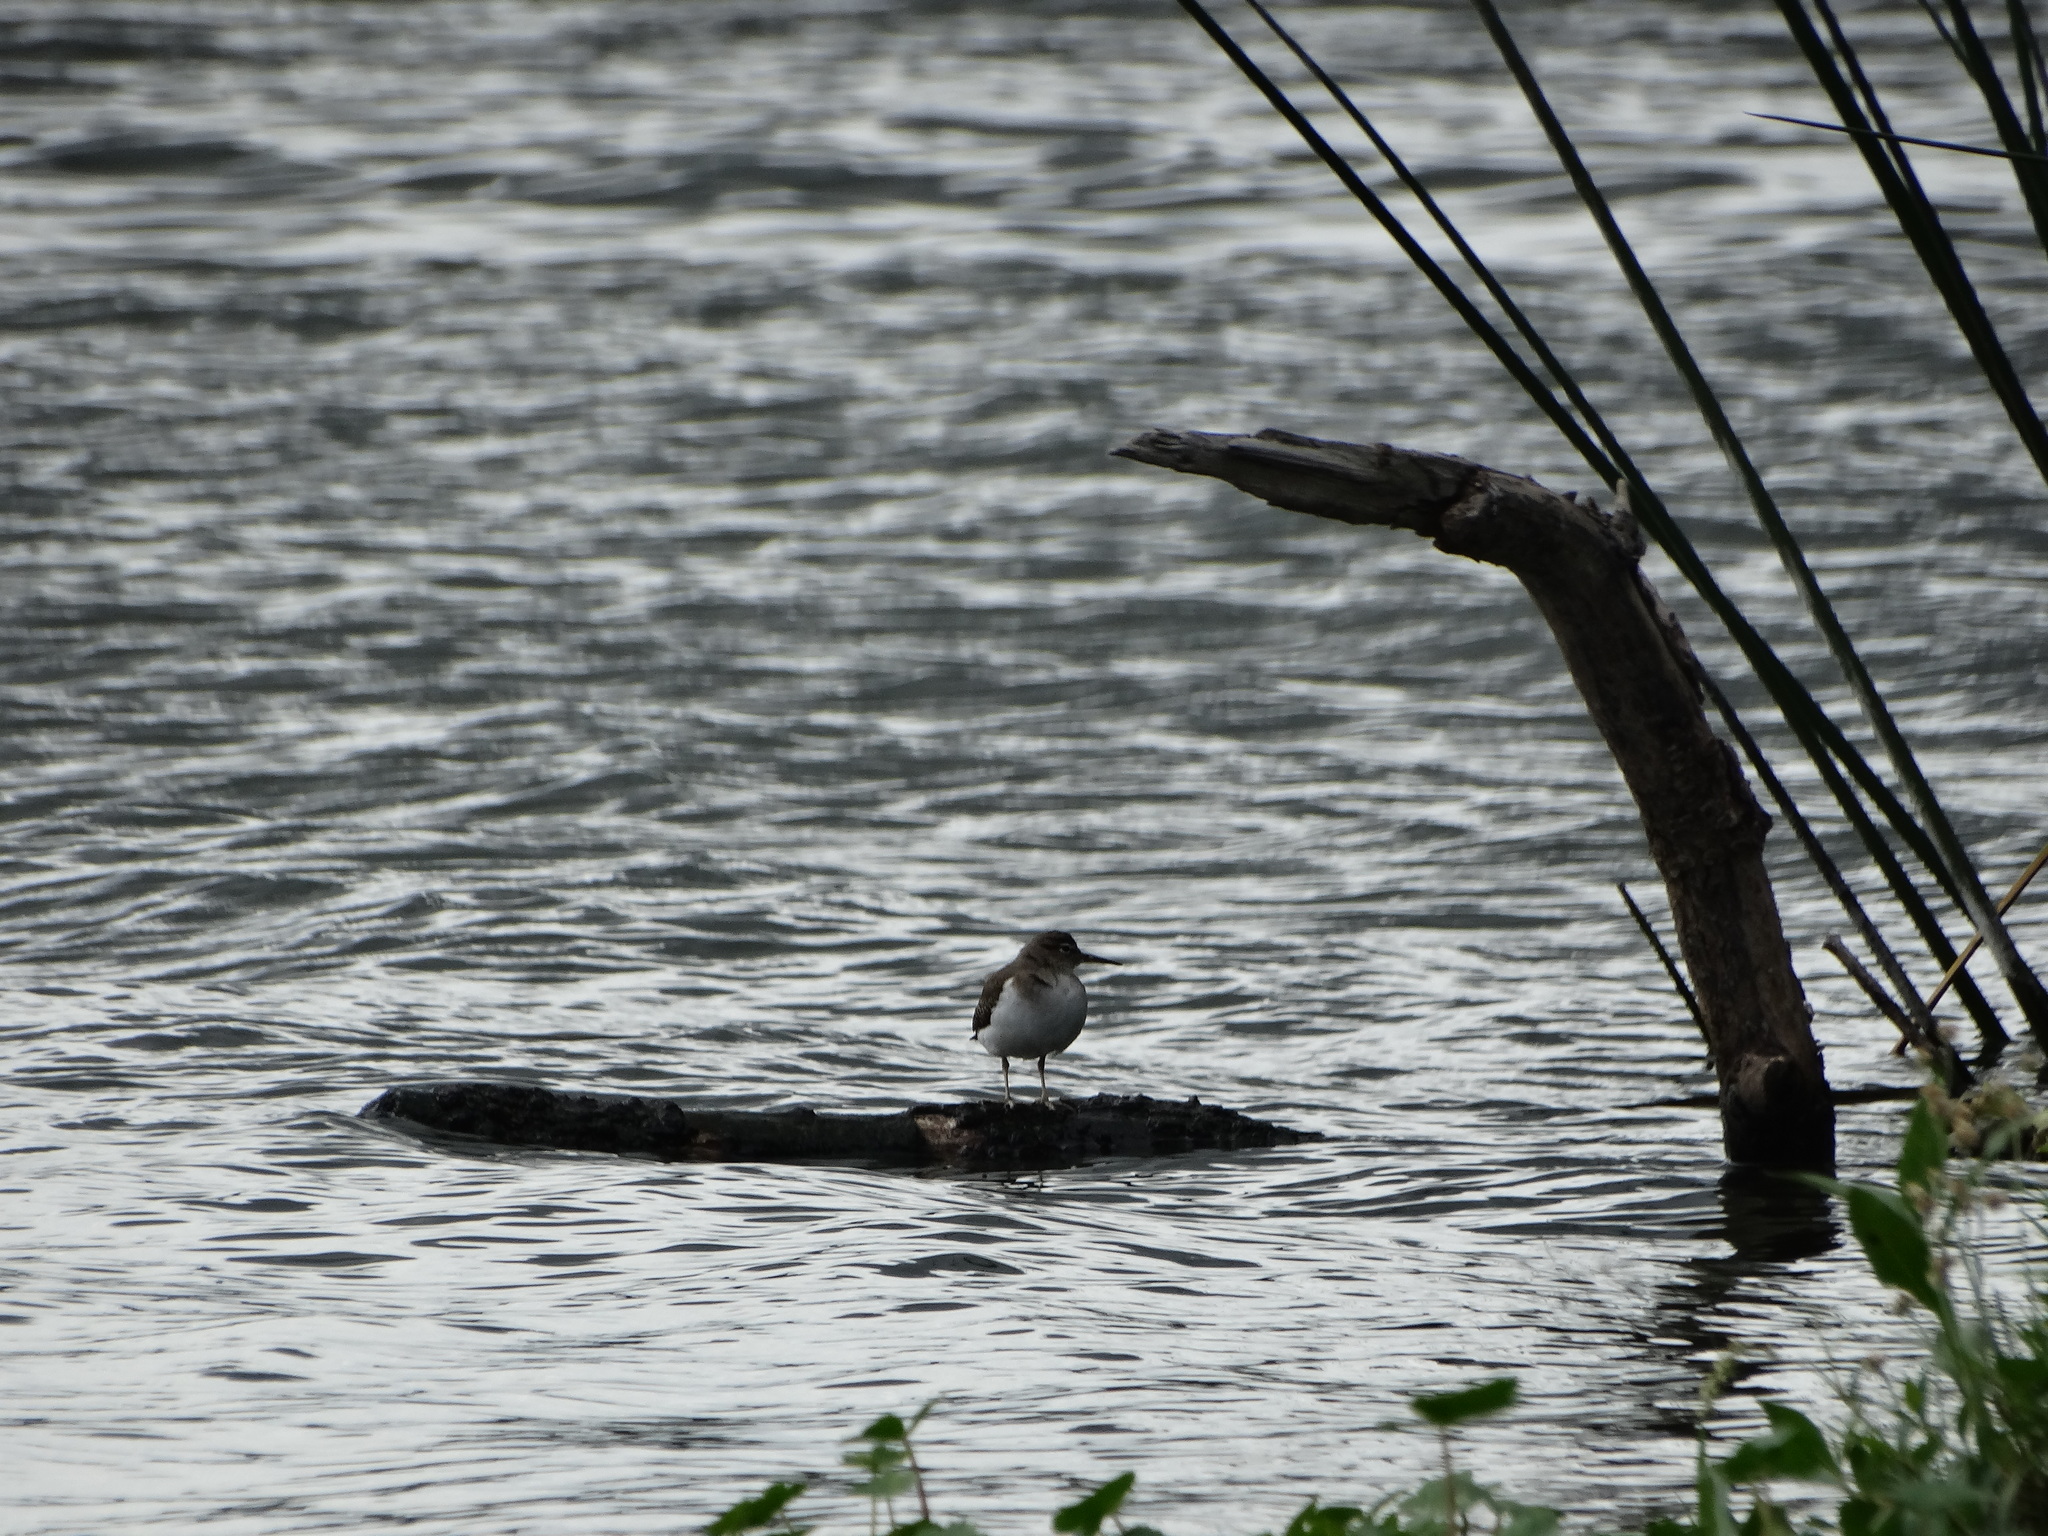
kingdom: Animalia
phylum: Chordata
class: Aves
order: Charadriiformes
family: Scolopacidae
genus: Actitis
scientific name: Actitis macularius
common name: Spotted sandpiper
